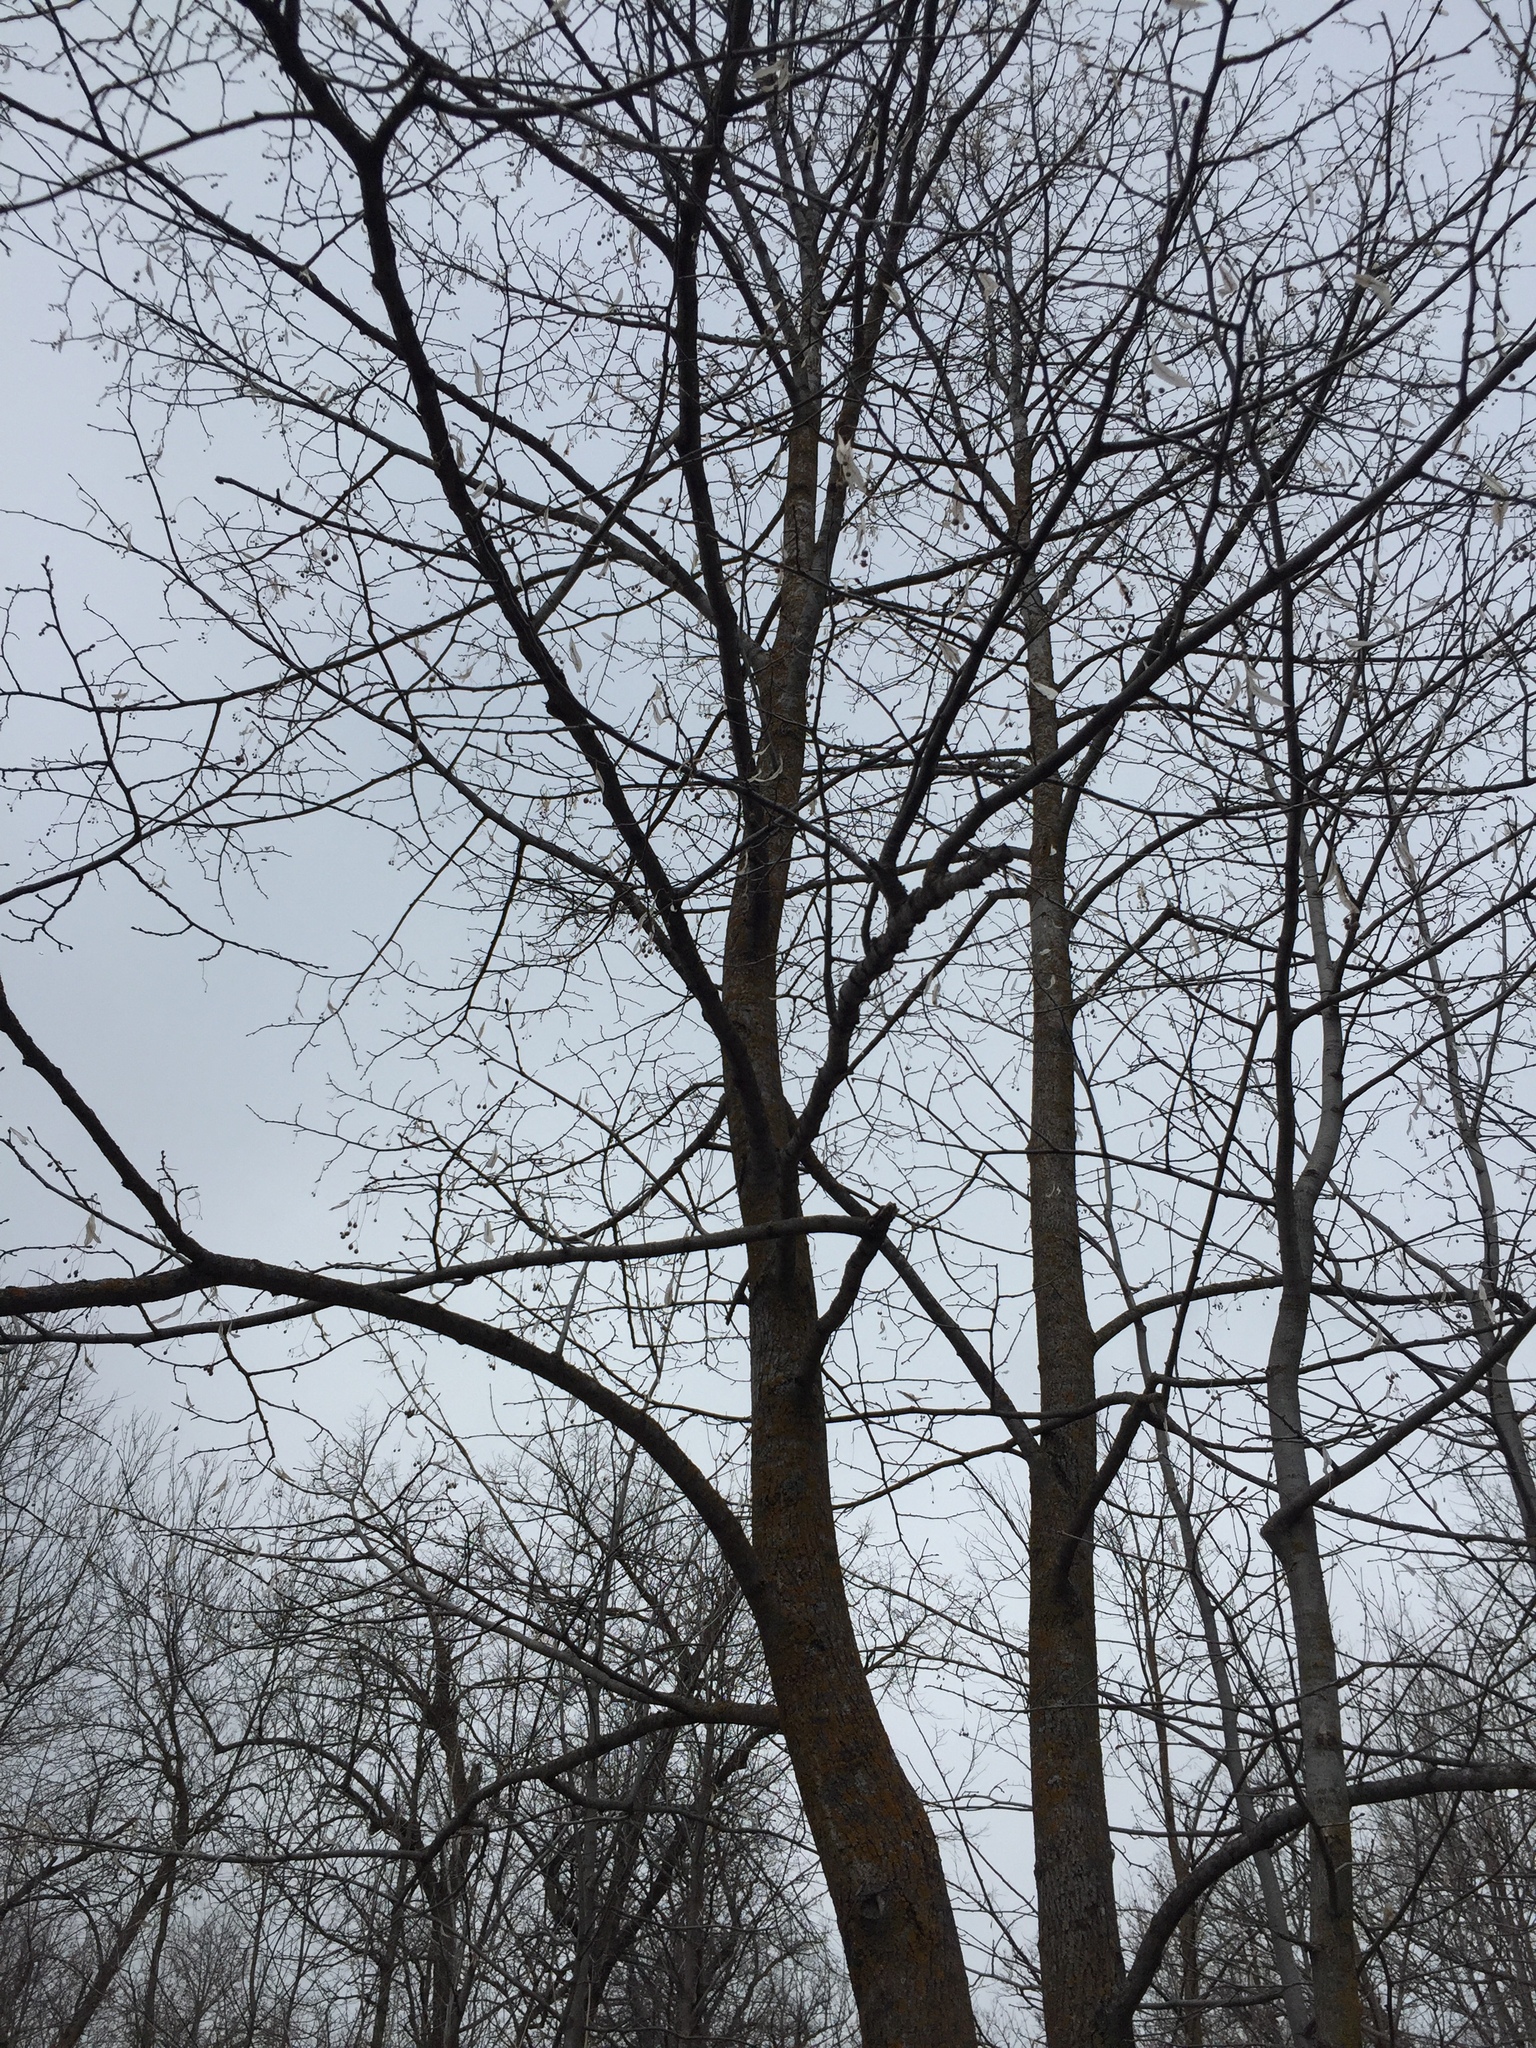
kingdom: Plantae
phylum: Tracheophyta
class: Magnoliopsida
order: Malvales
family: Malvaceae
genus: Tilia
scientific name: Tilia americana
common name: Basswood
